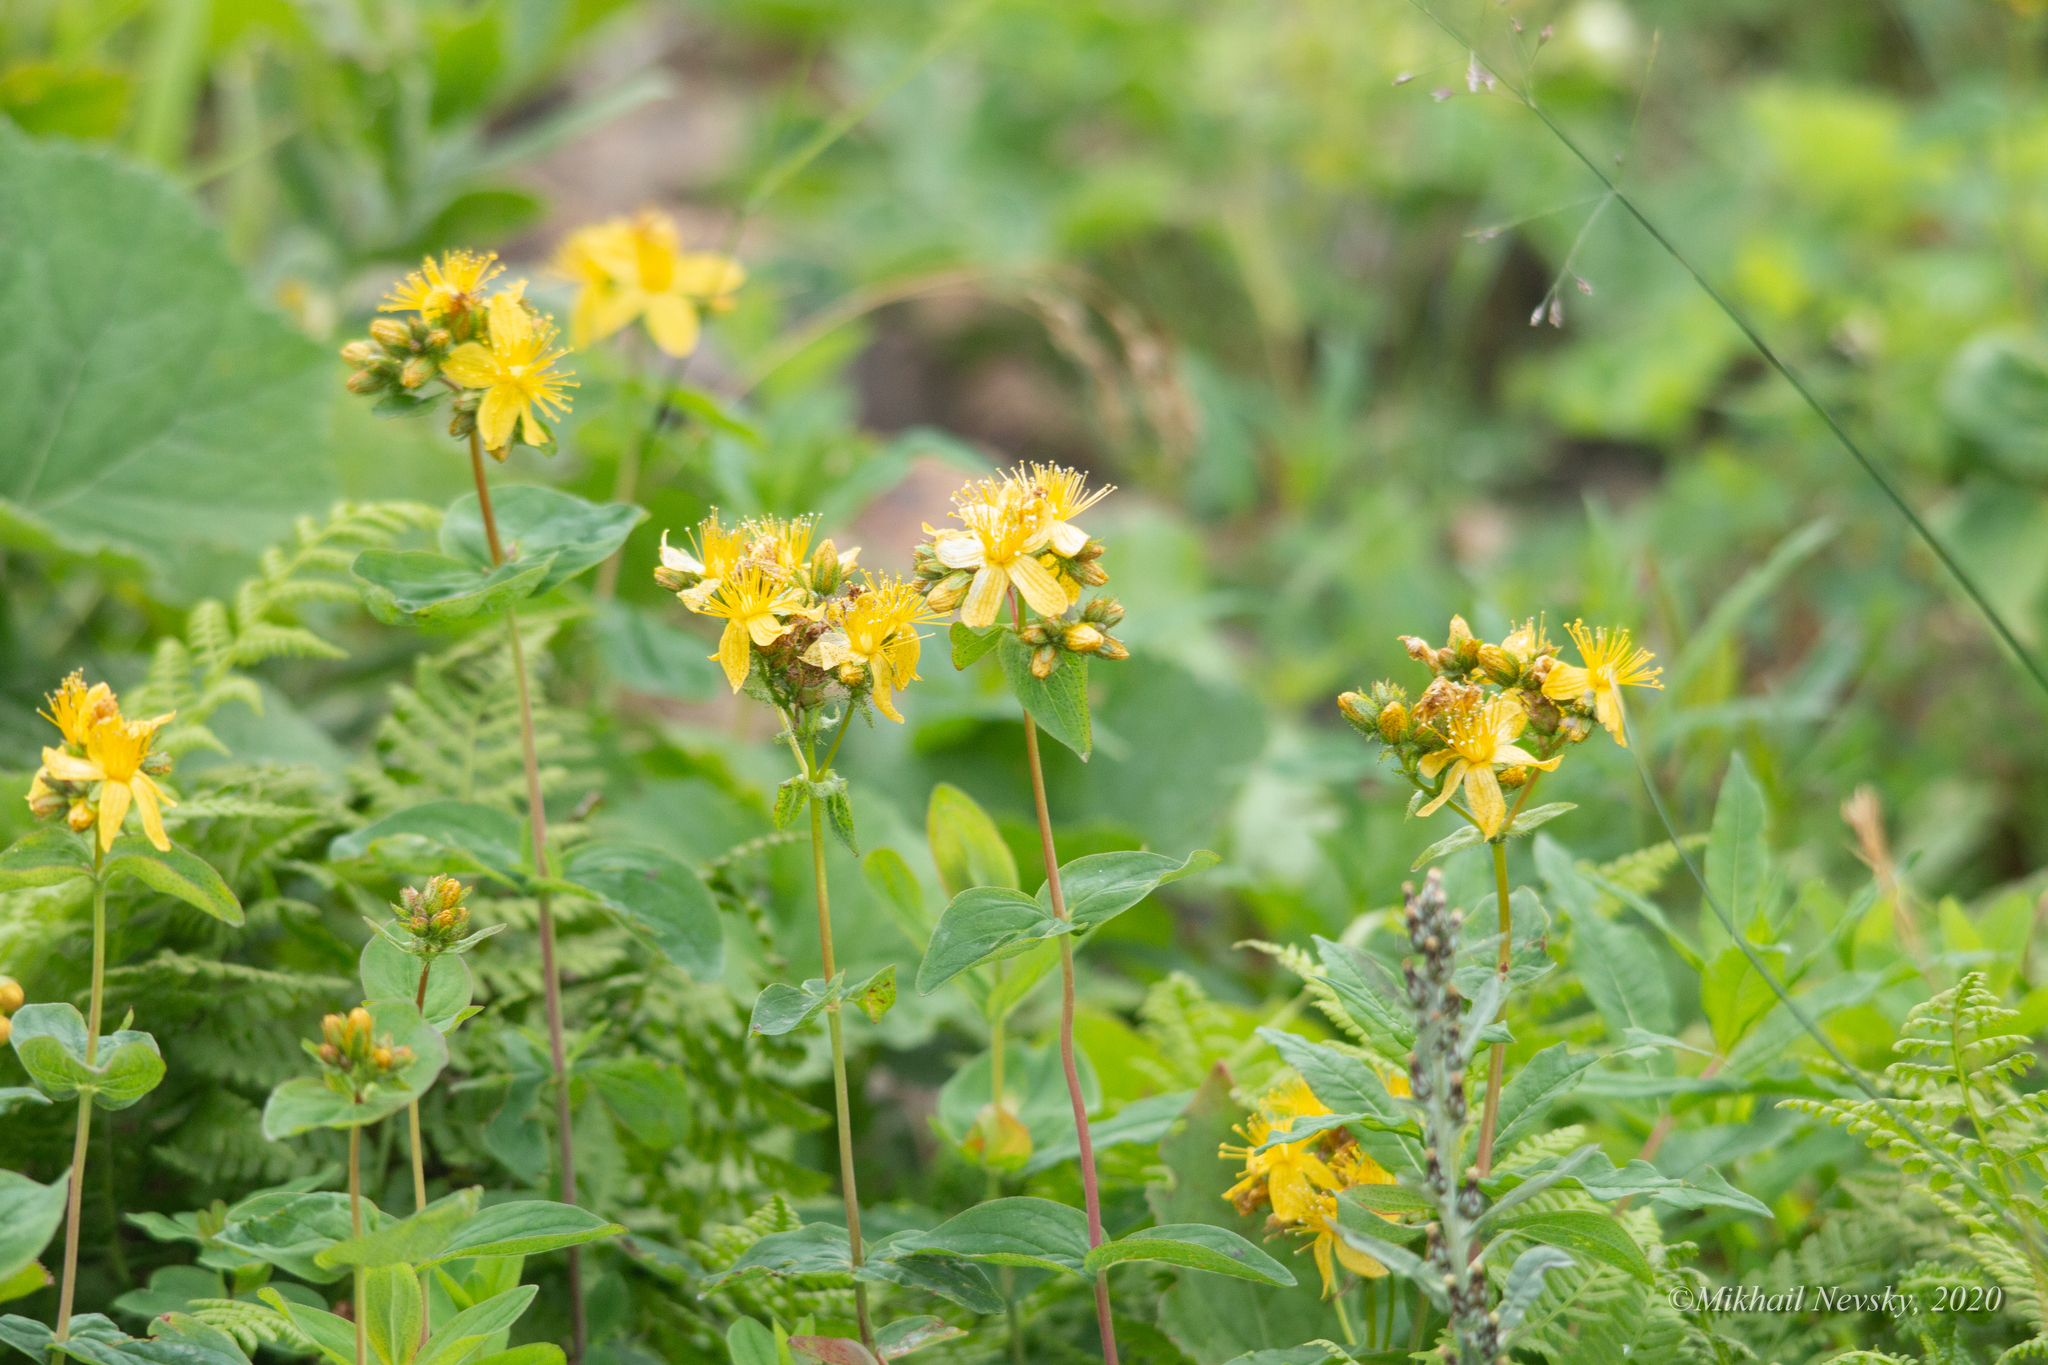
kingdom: Plantae
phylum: Tracheophyta
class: Magnoliopsida
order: Malpighiales
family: Hypericaceae
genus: Hypericum
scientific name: Hypericum bithynicum
